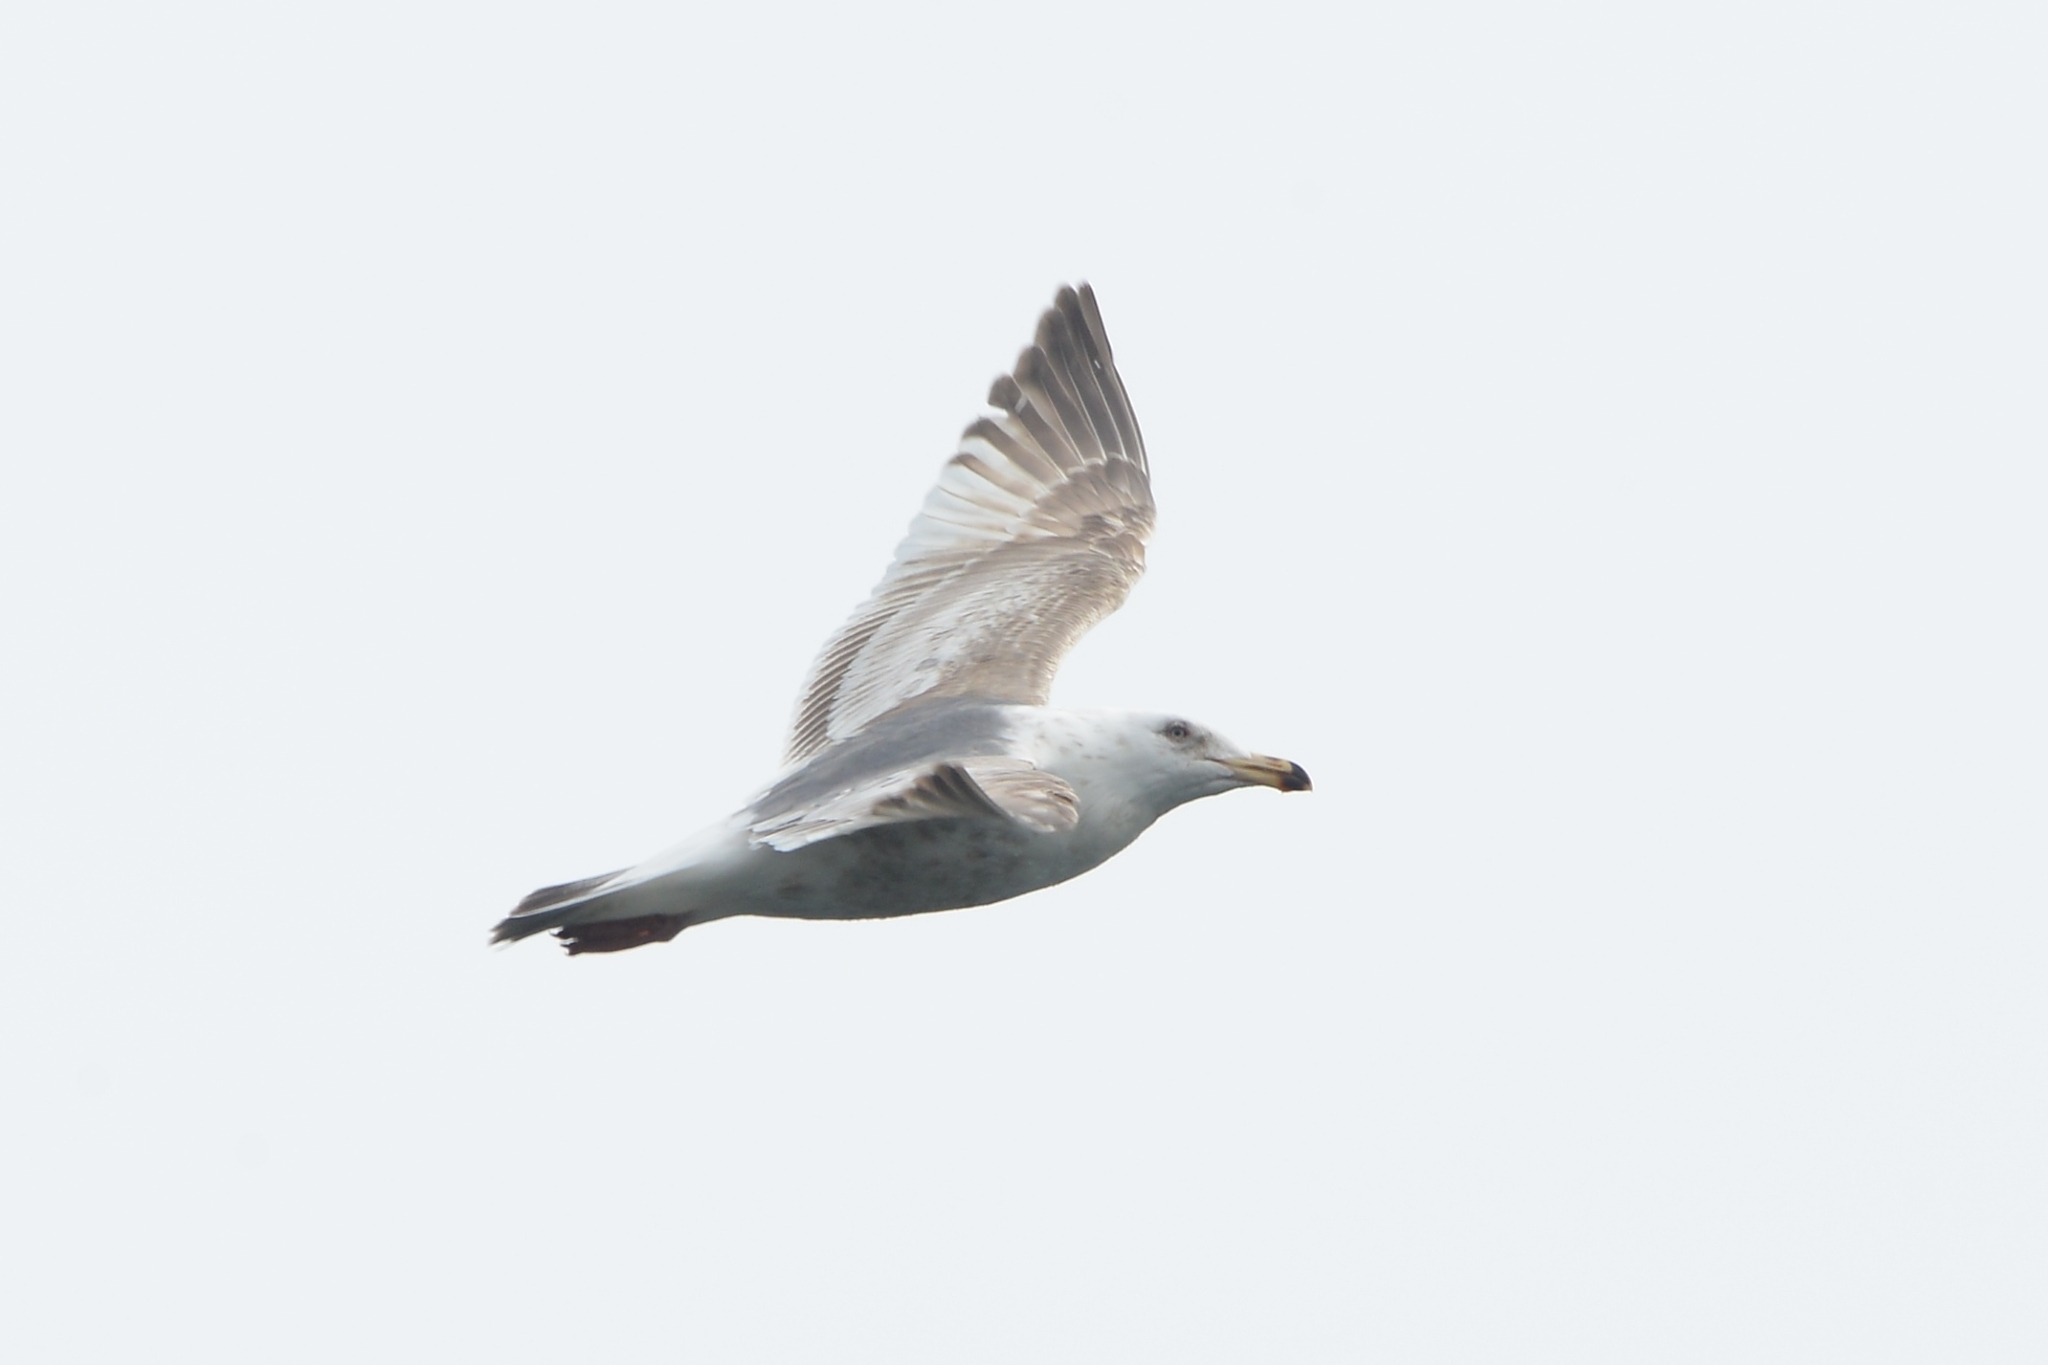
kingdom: Animalia
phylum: Chordata
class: Aves
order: Charadriiformes
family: Laridae
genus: Larus
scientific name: Larus schistisagus
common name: Slaty-backed gull
